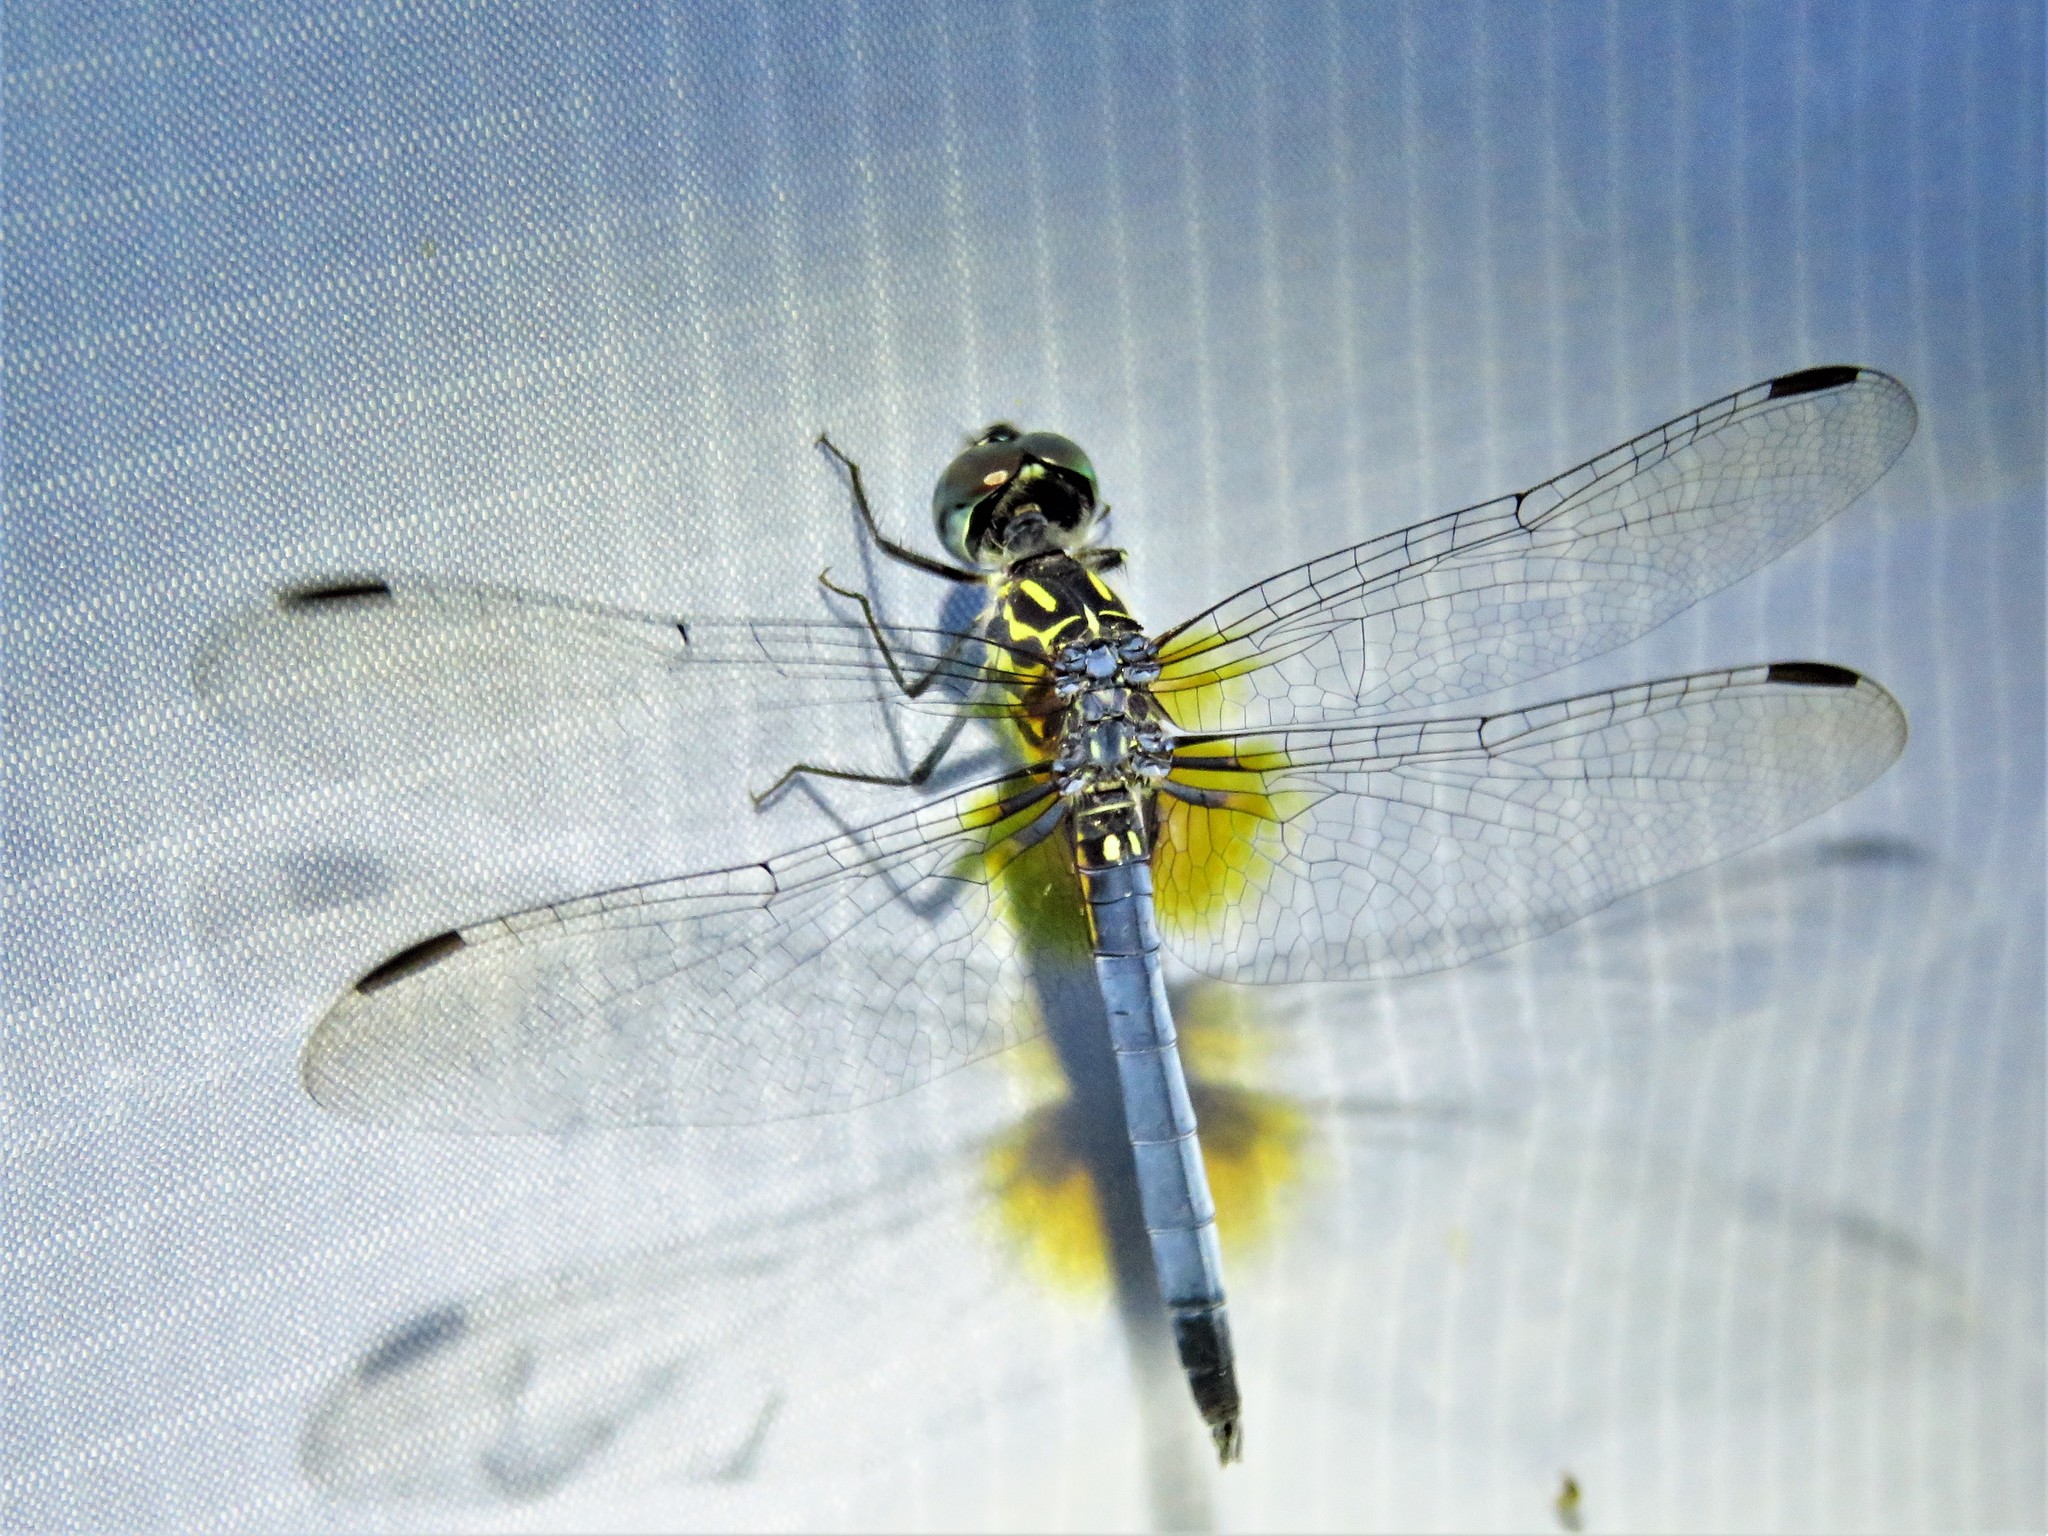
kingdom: Animalia
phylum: Arthropoda
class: Insecta
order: Odonata
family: Libellulidae
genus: Pachydiplax
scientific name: Pachydiplax longipennis
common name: Blue dasher
